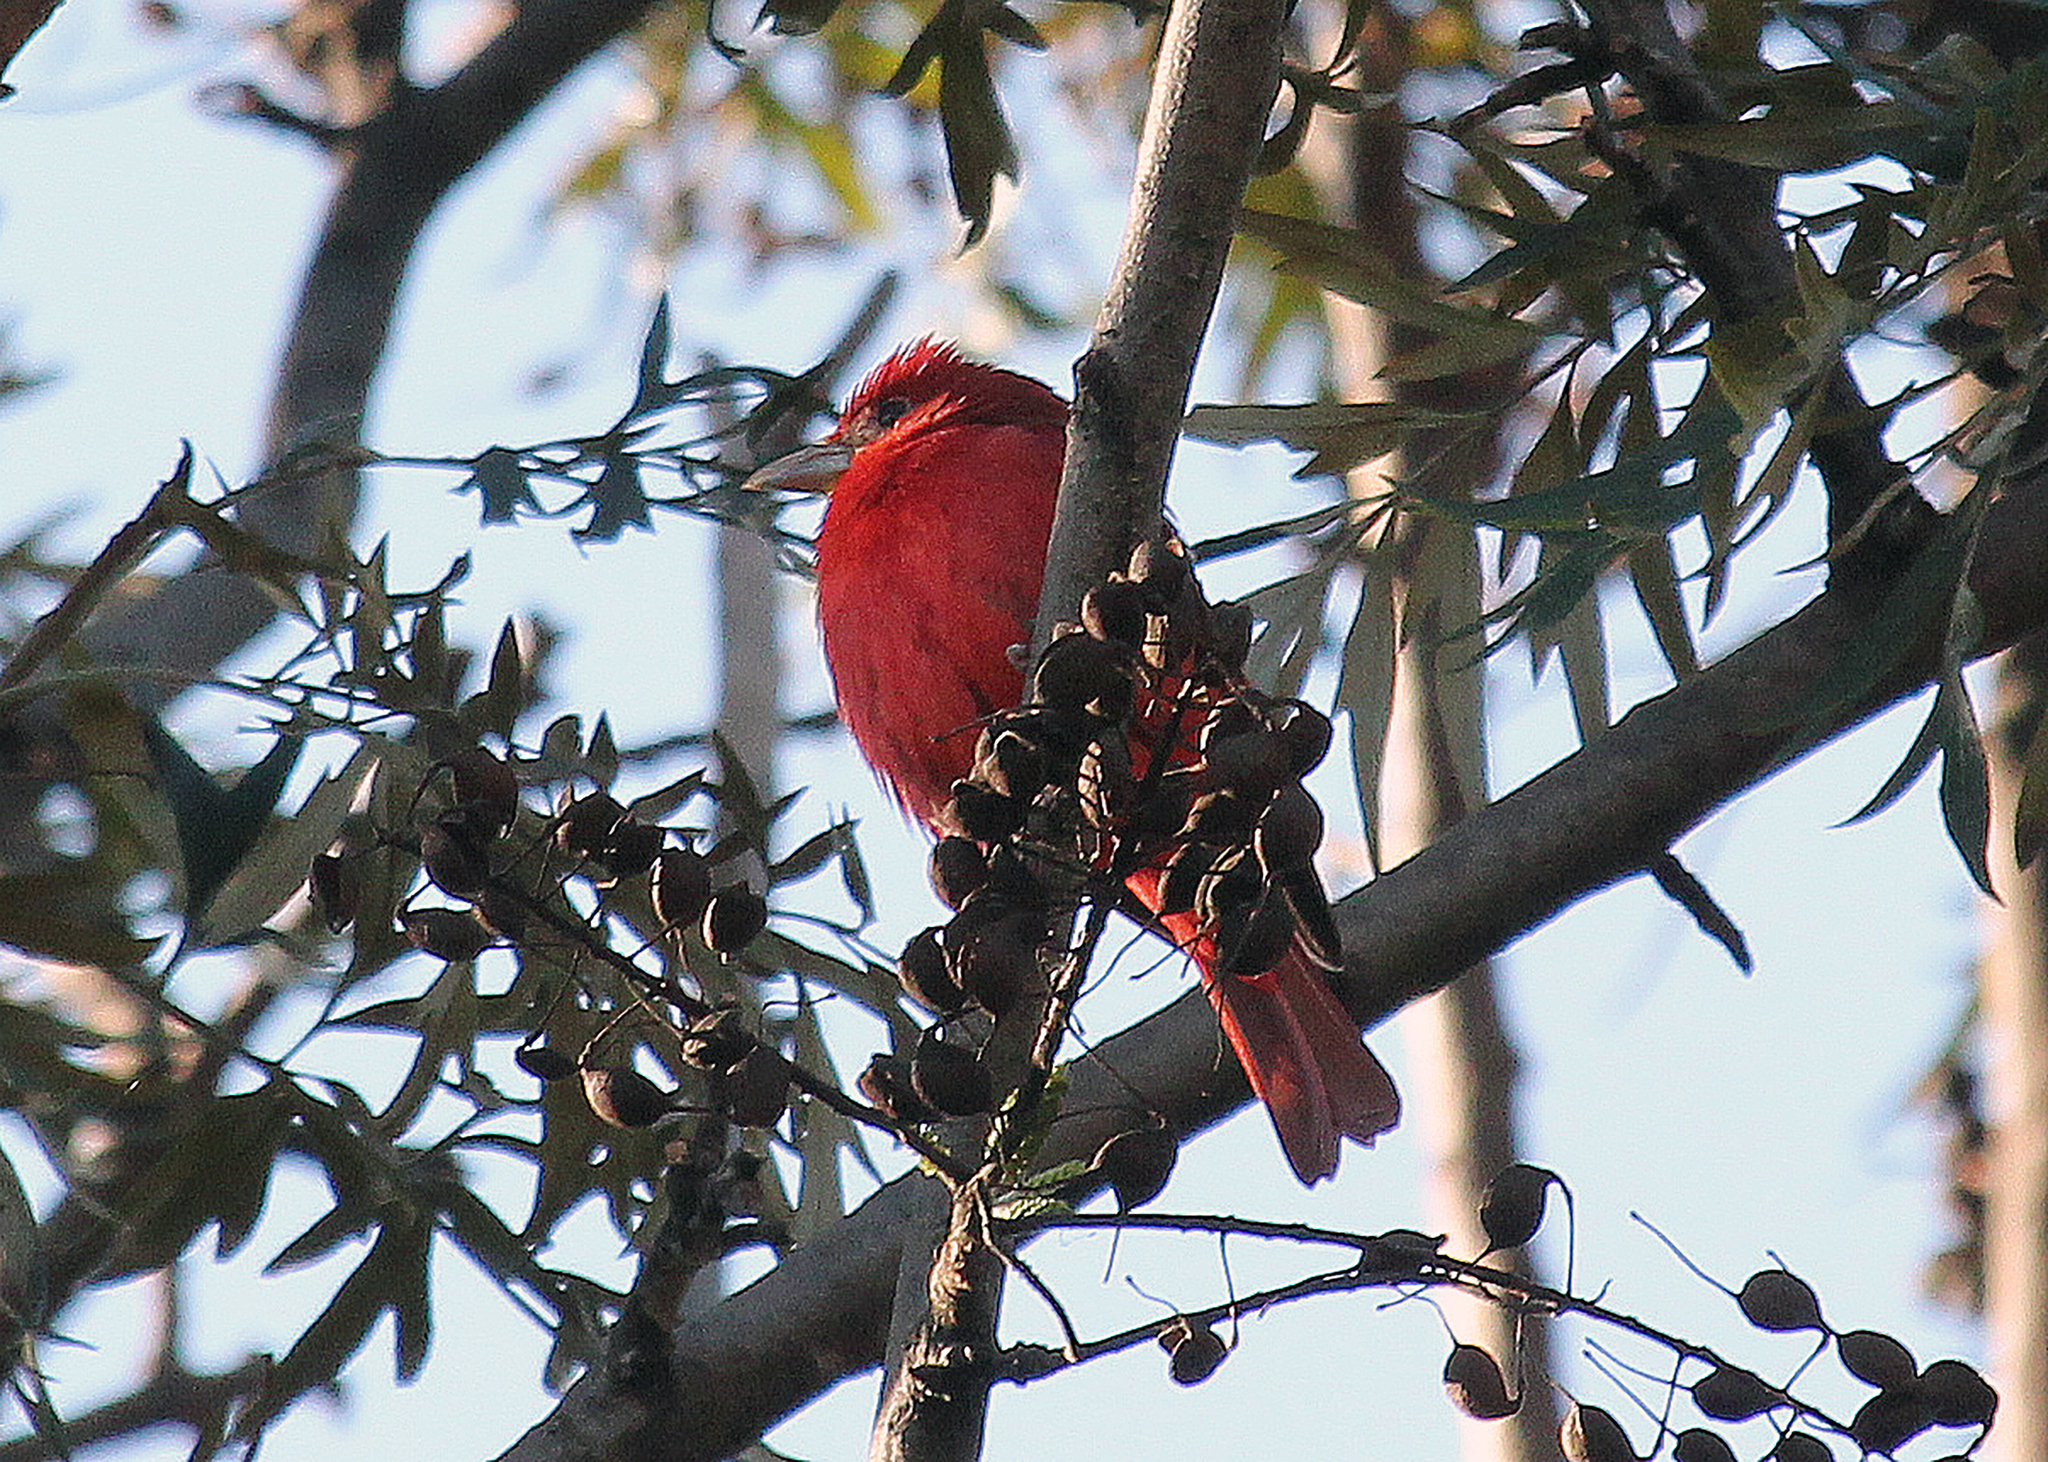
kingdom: Animalia
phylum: Chordata
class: Aves
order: Passeriformes
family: Cardinalidae
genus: Piranga
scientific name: Piranga rubra
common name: Summer tanager
